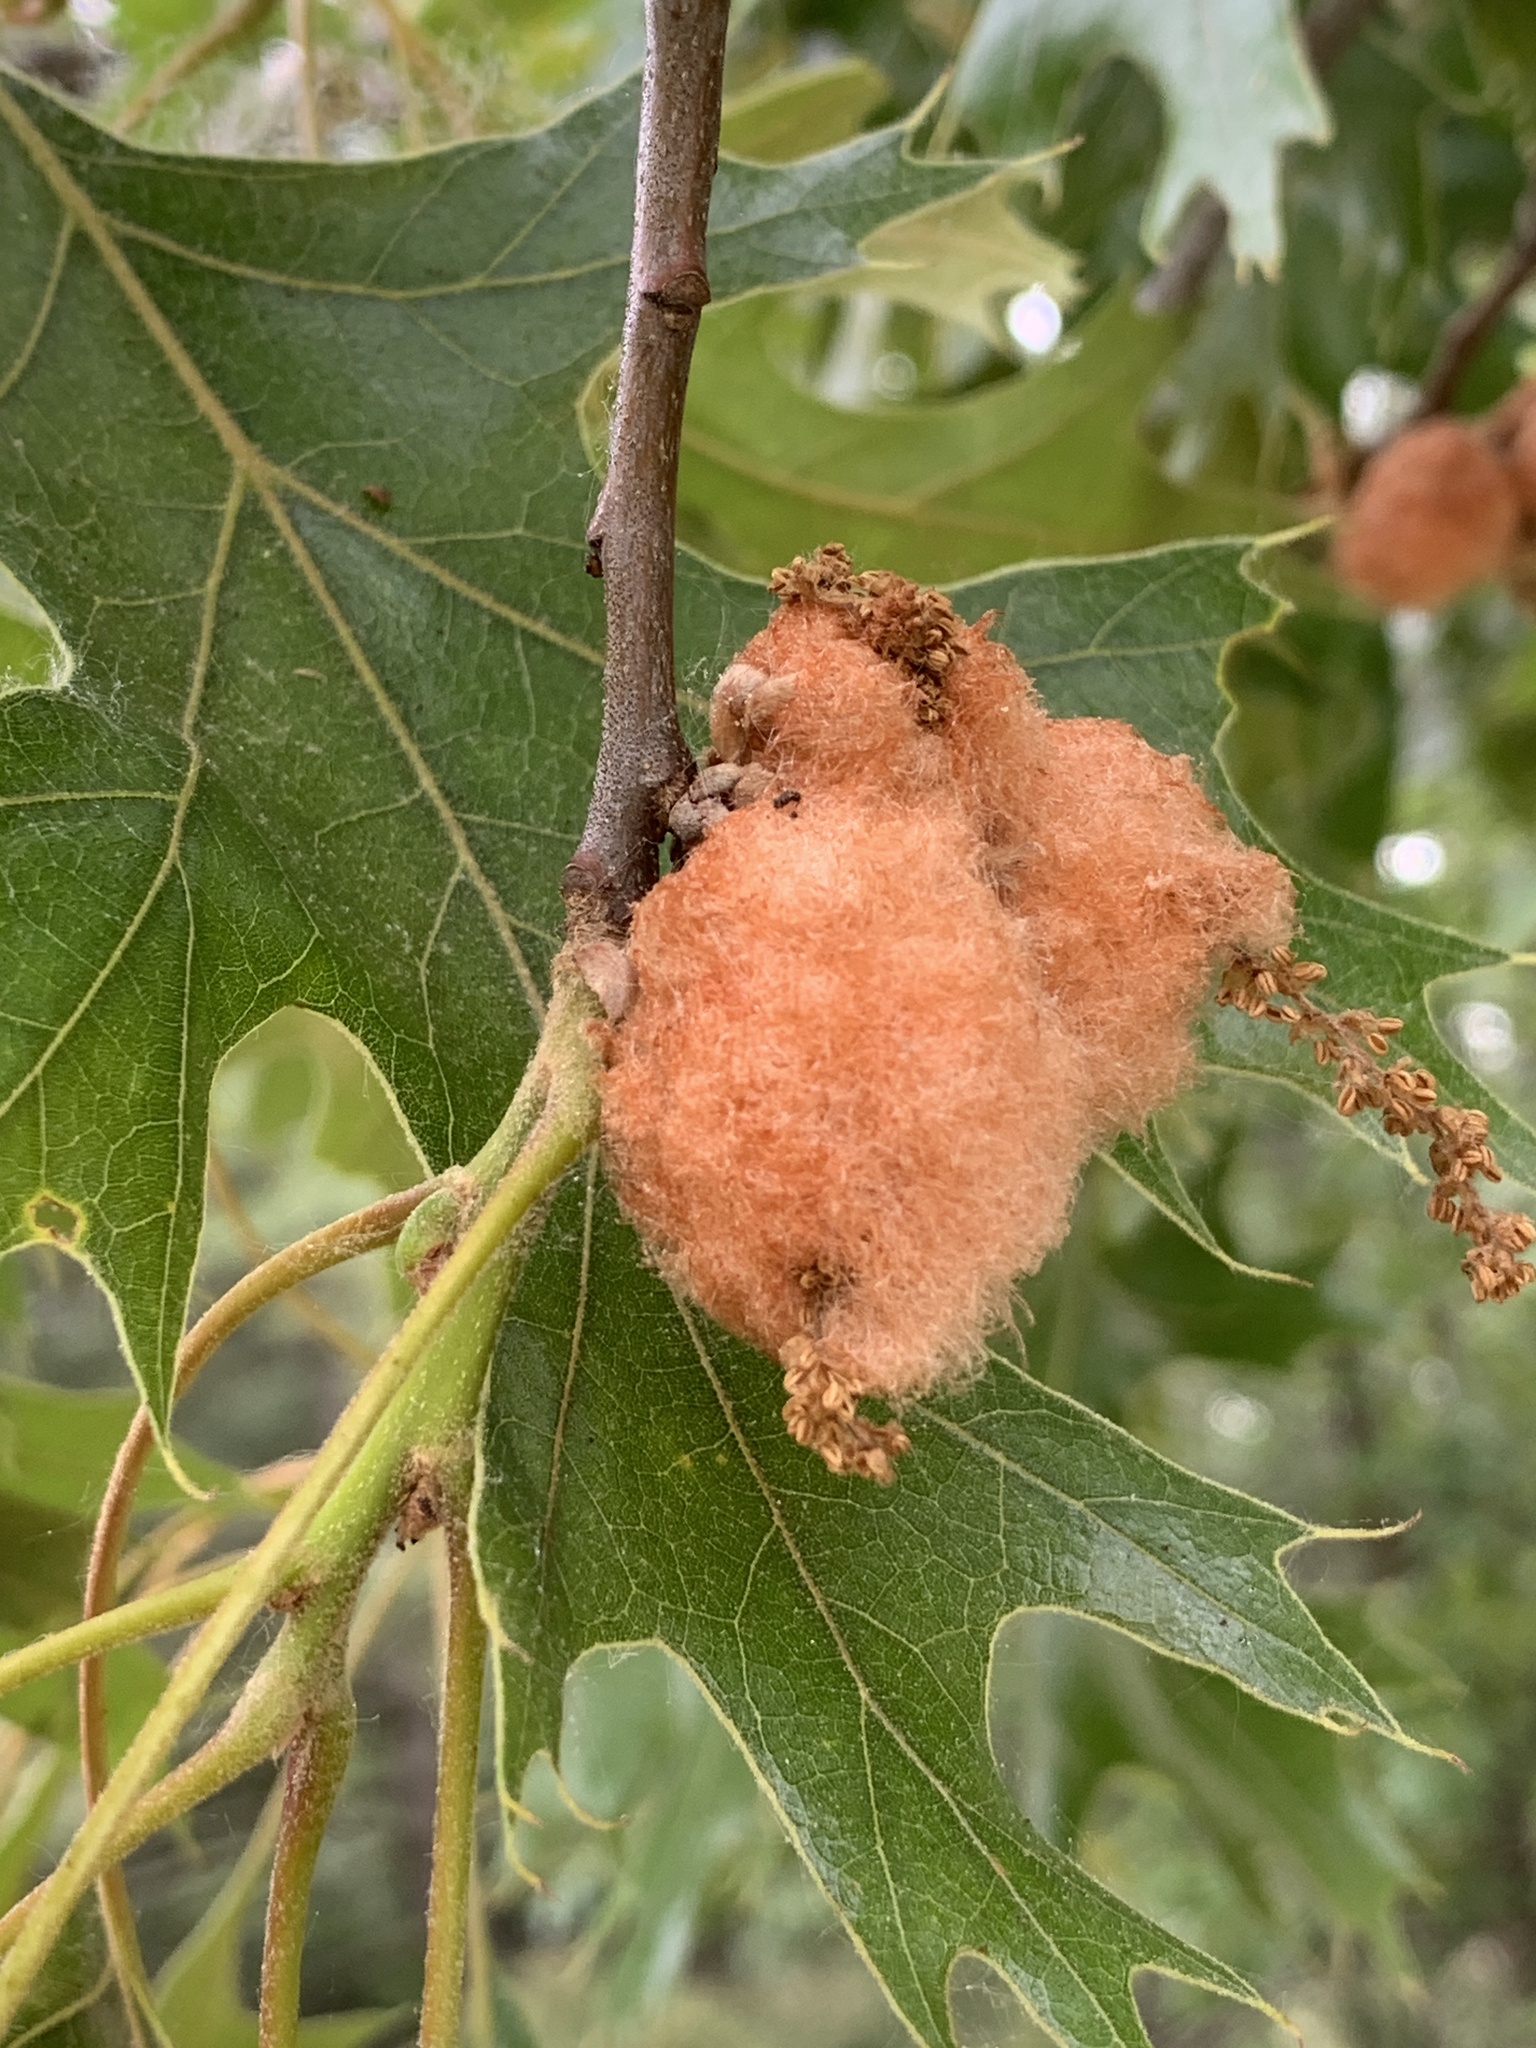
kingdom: Animalia
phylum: Arthropoda
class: Insecta
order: Hymenoptera
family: Cynipidae
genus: Callirhytis
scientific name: Callirhytis
